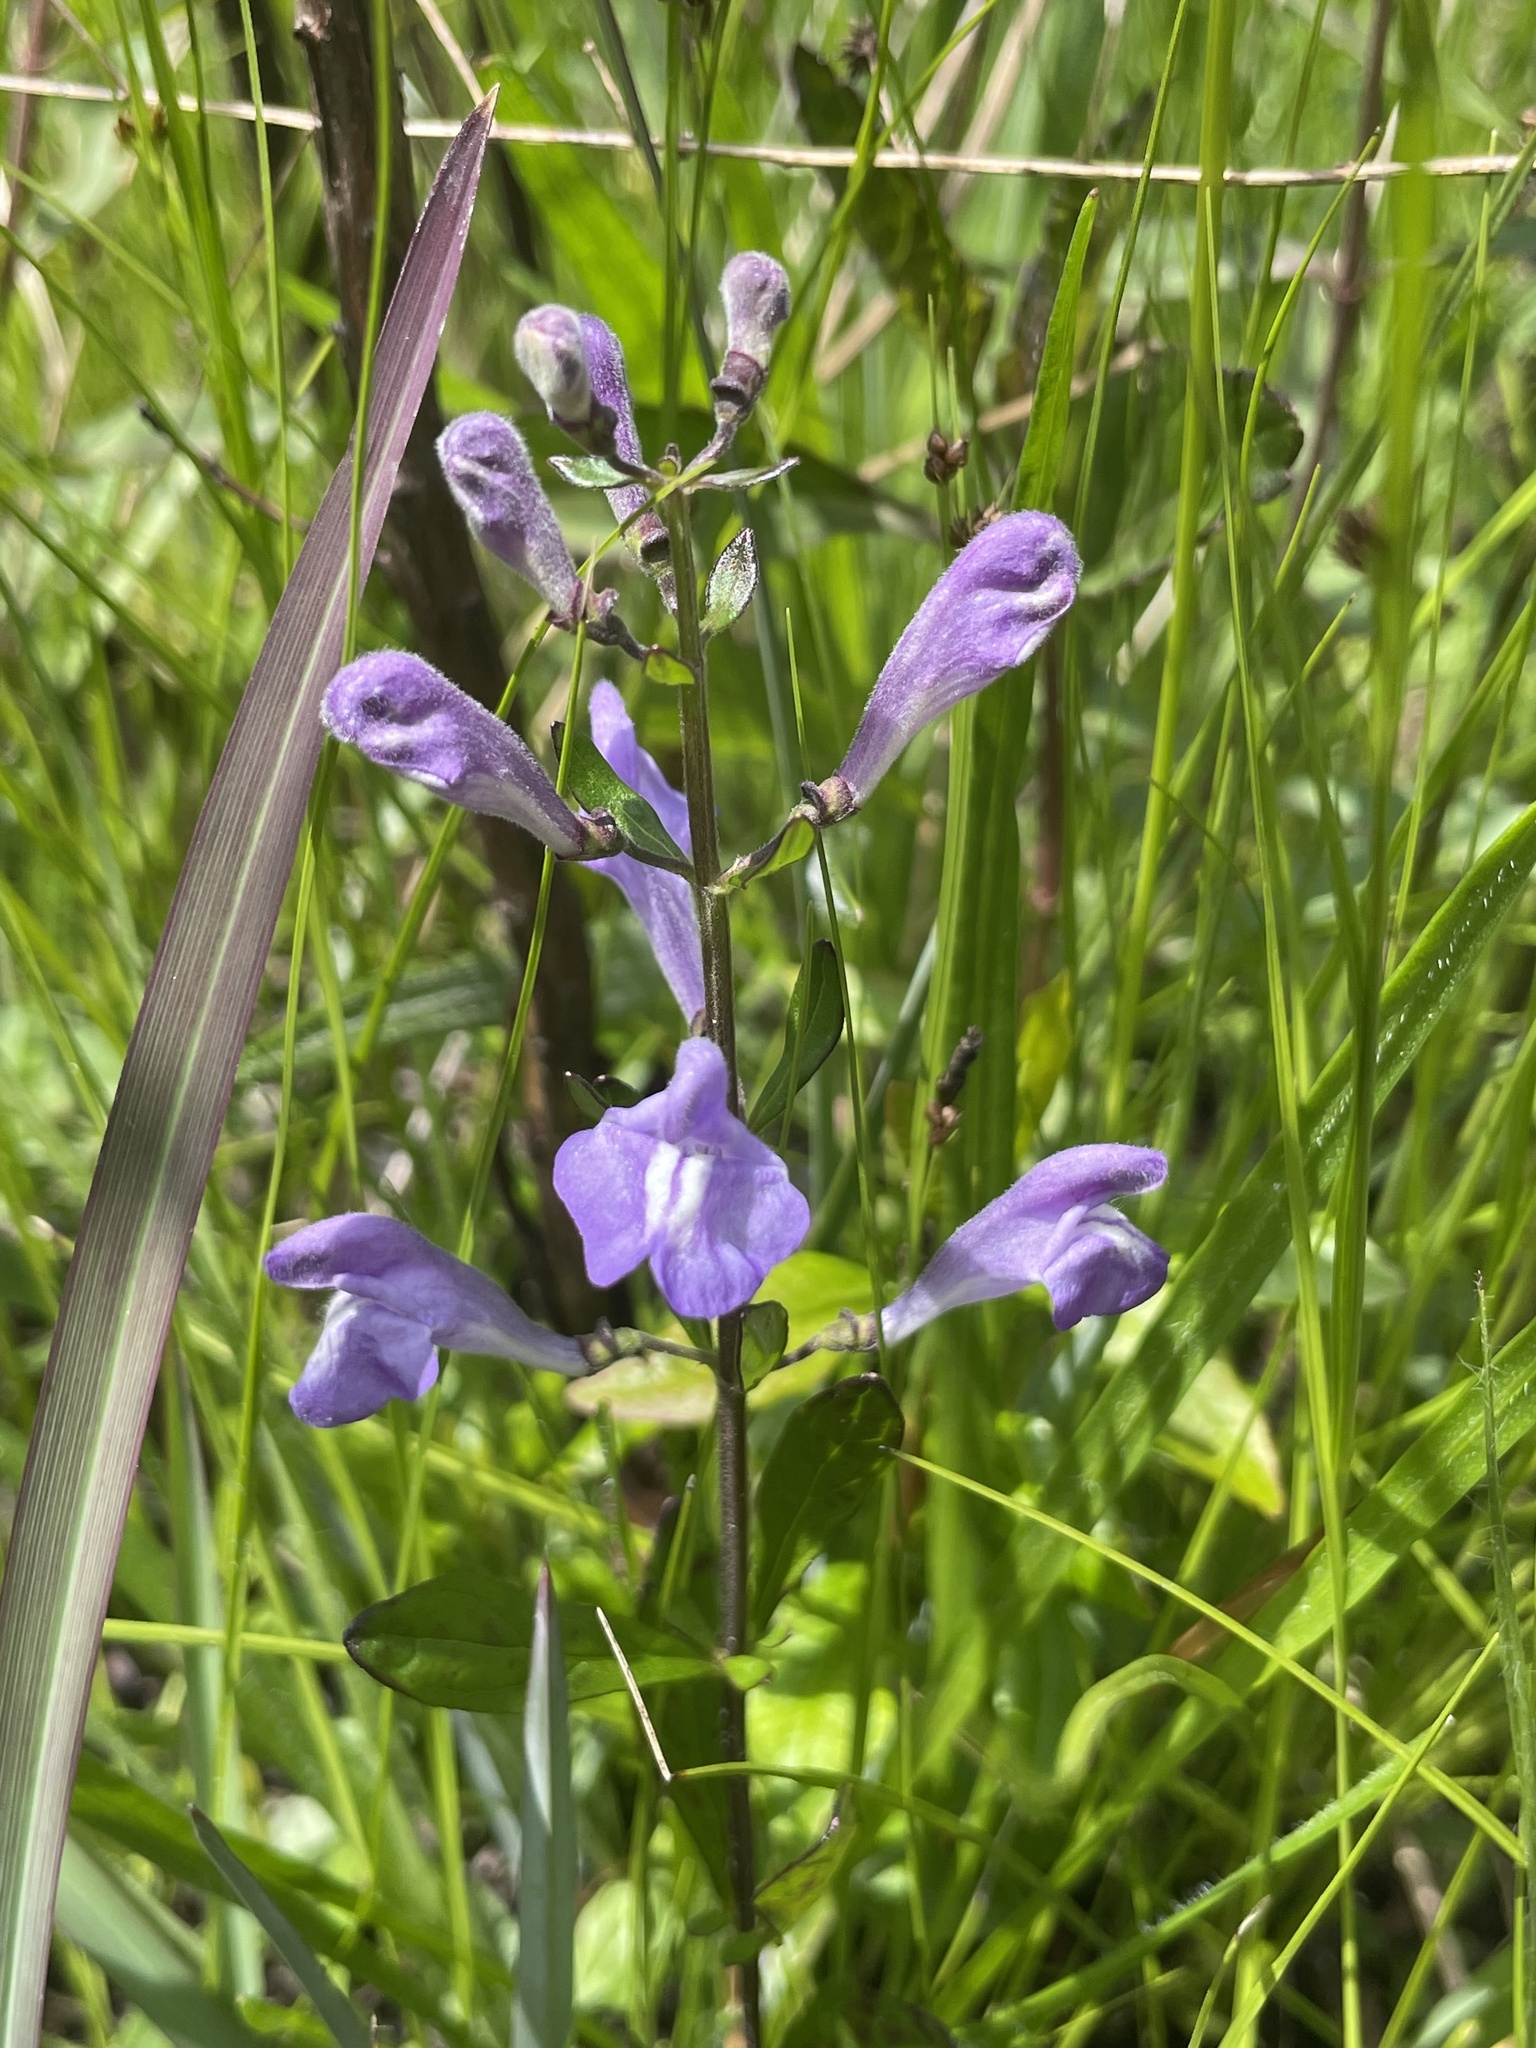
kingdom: Plantae
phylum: Tracheophyta
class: Magnoliopsida
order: Lamiales
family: Lamiaceae
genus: Scutellaria
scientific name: Scutellaria integrifolia
